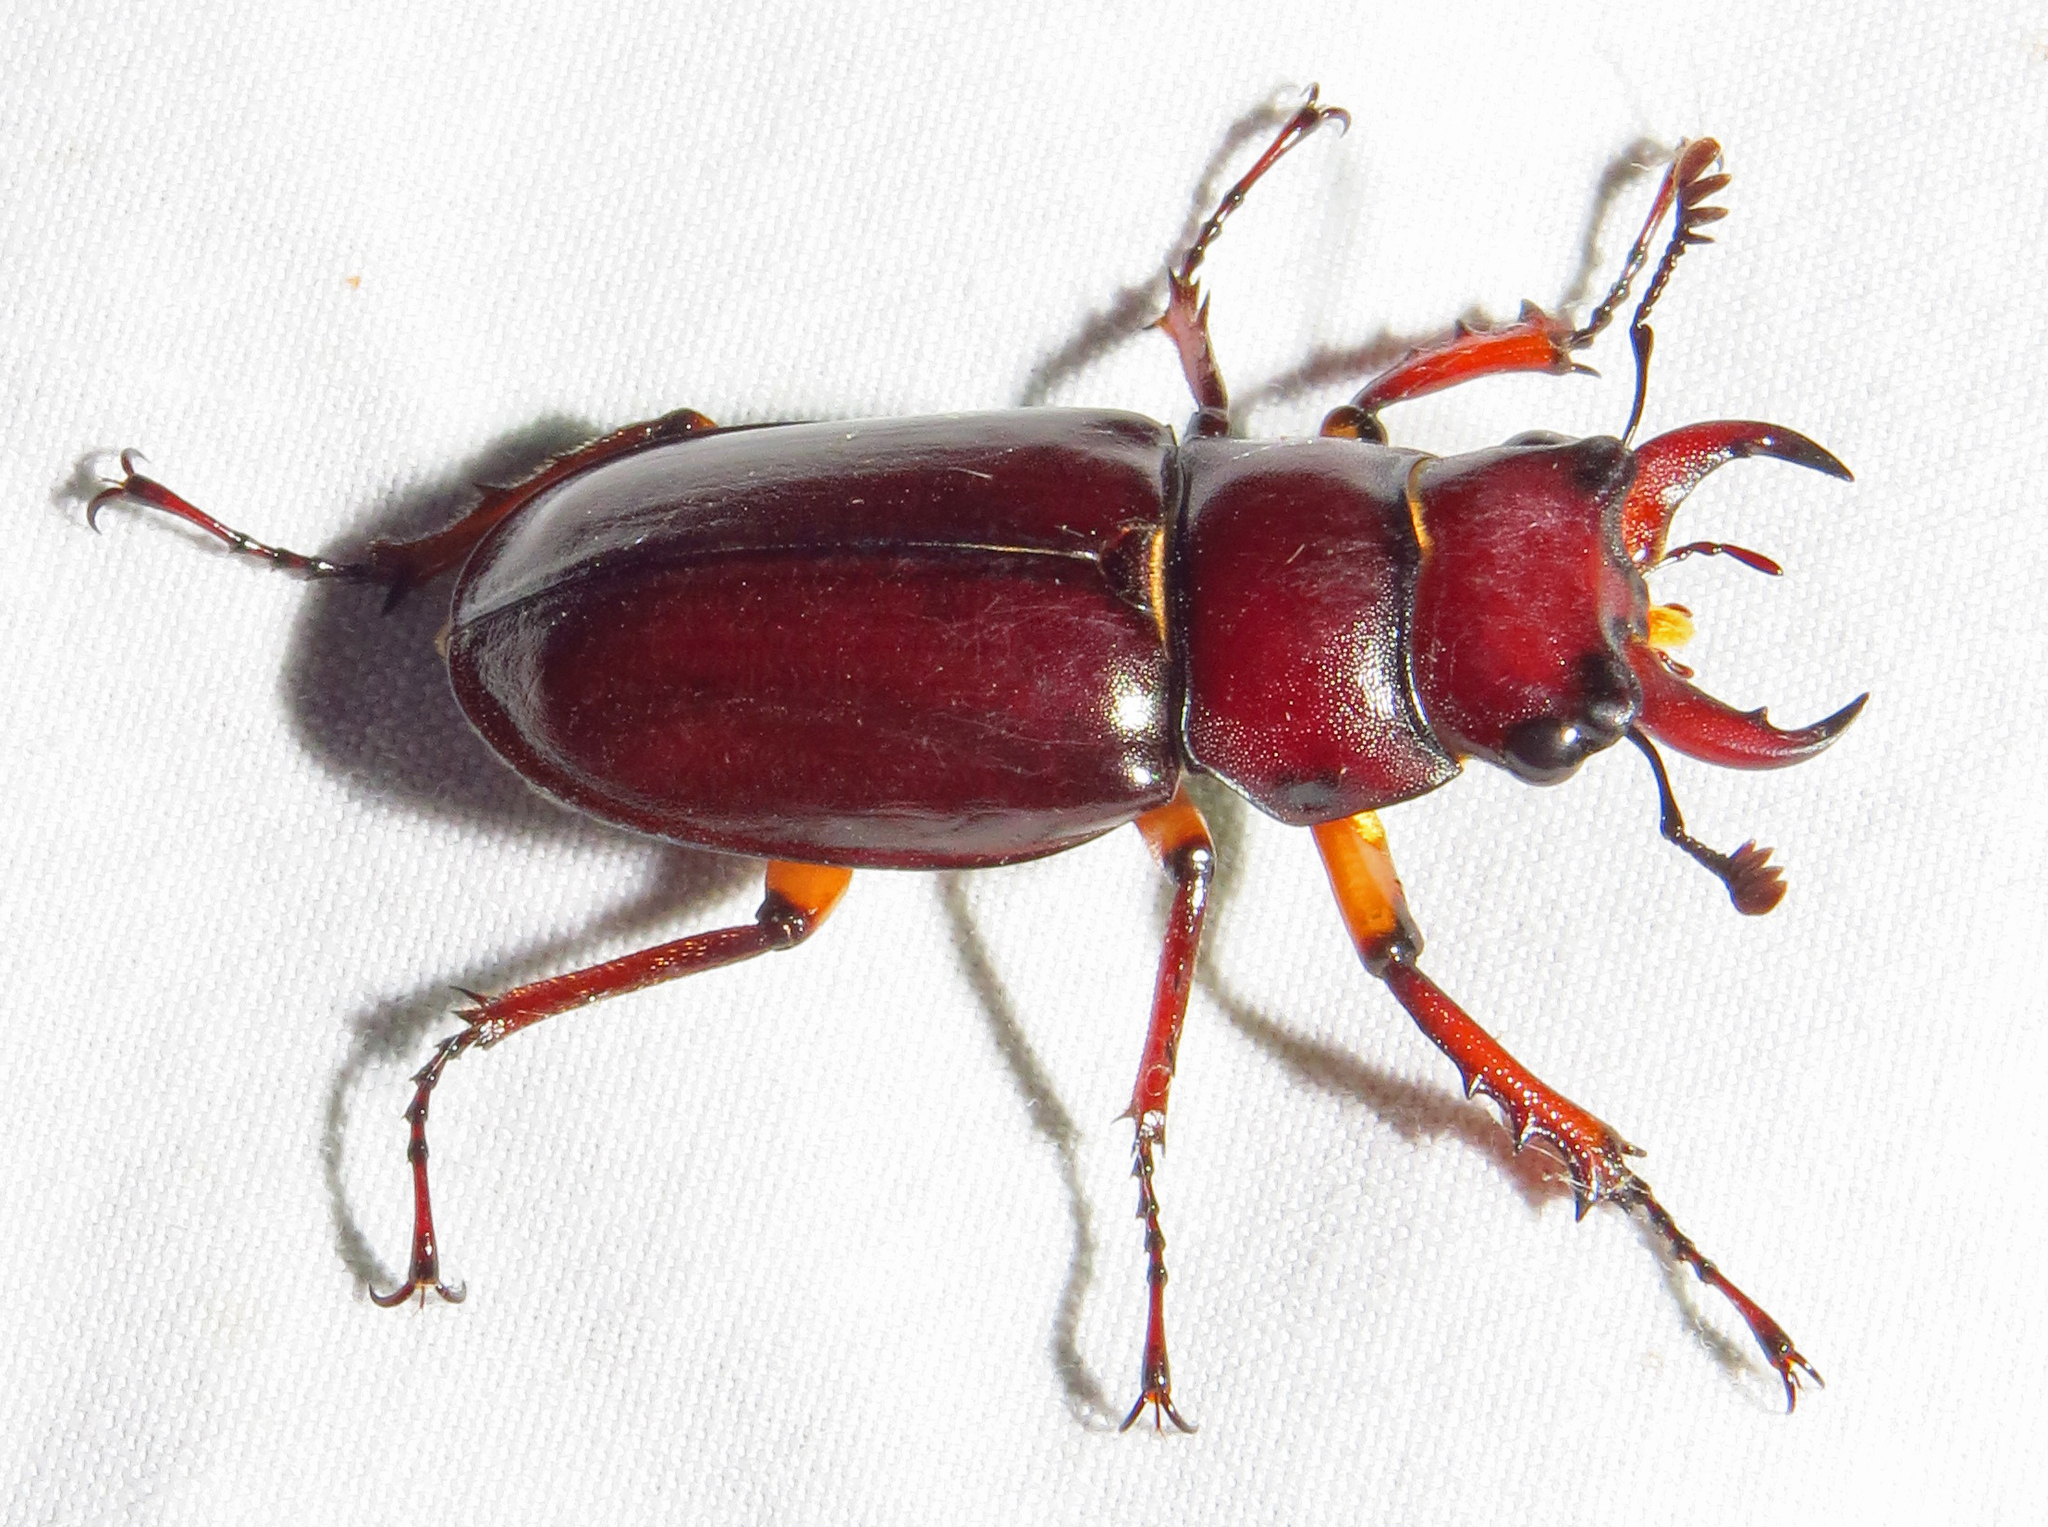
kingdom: Animalia
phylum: Arthropoda
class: Insecta
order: Coleoptera
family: Lucanidae
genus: Lucanus
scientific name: Lucanus capreolus
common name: Stag beetle
